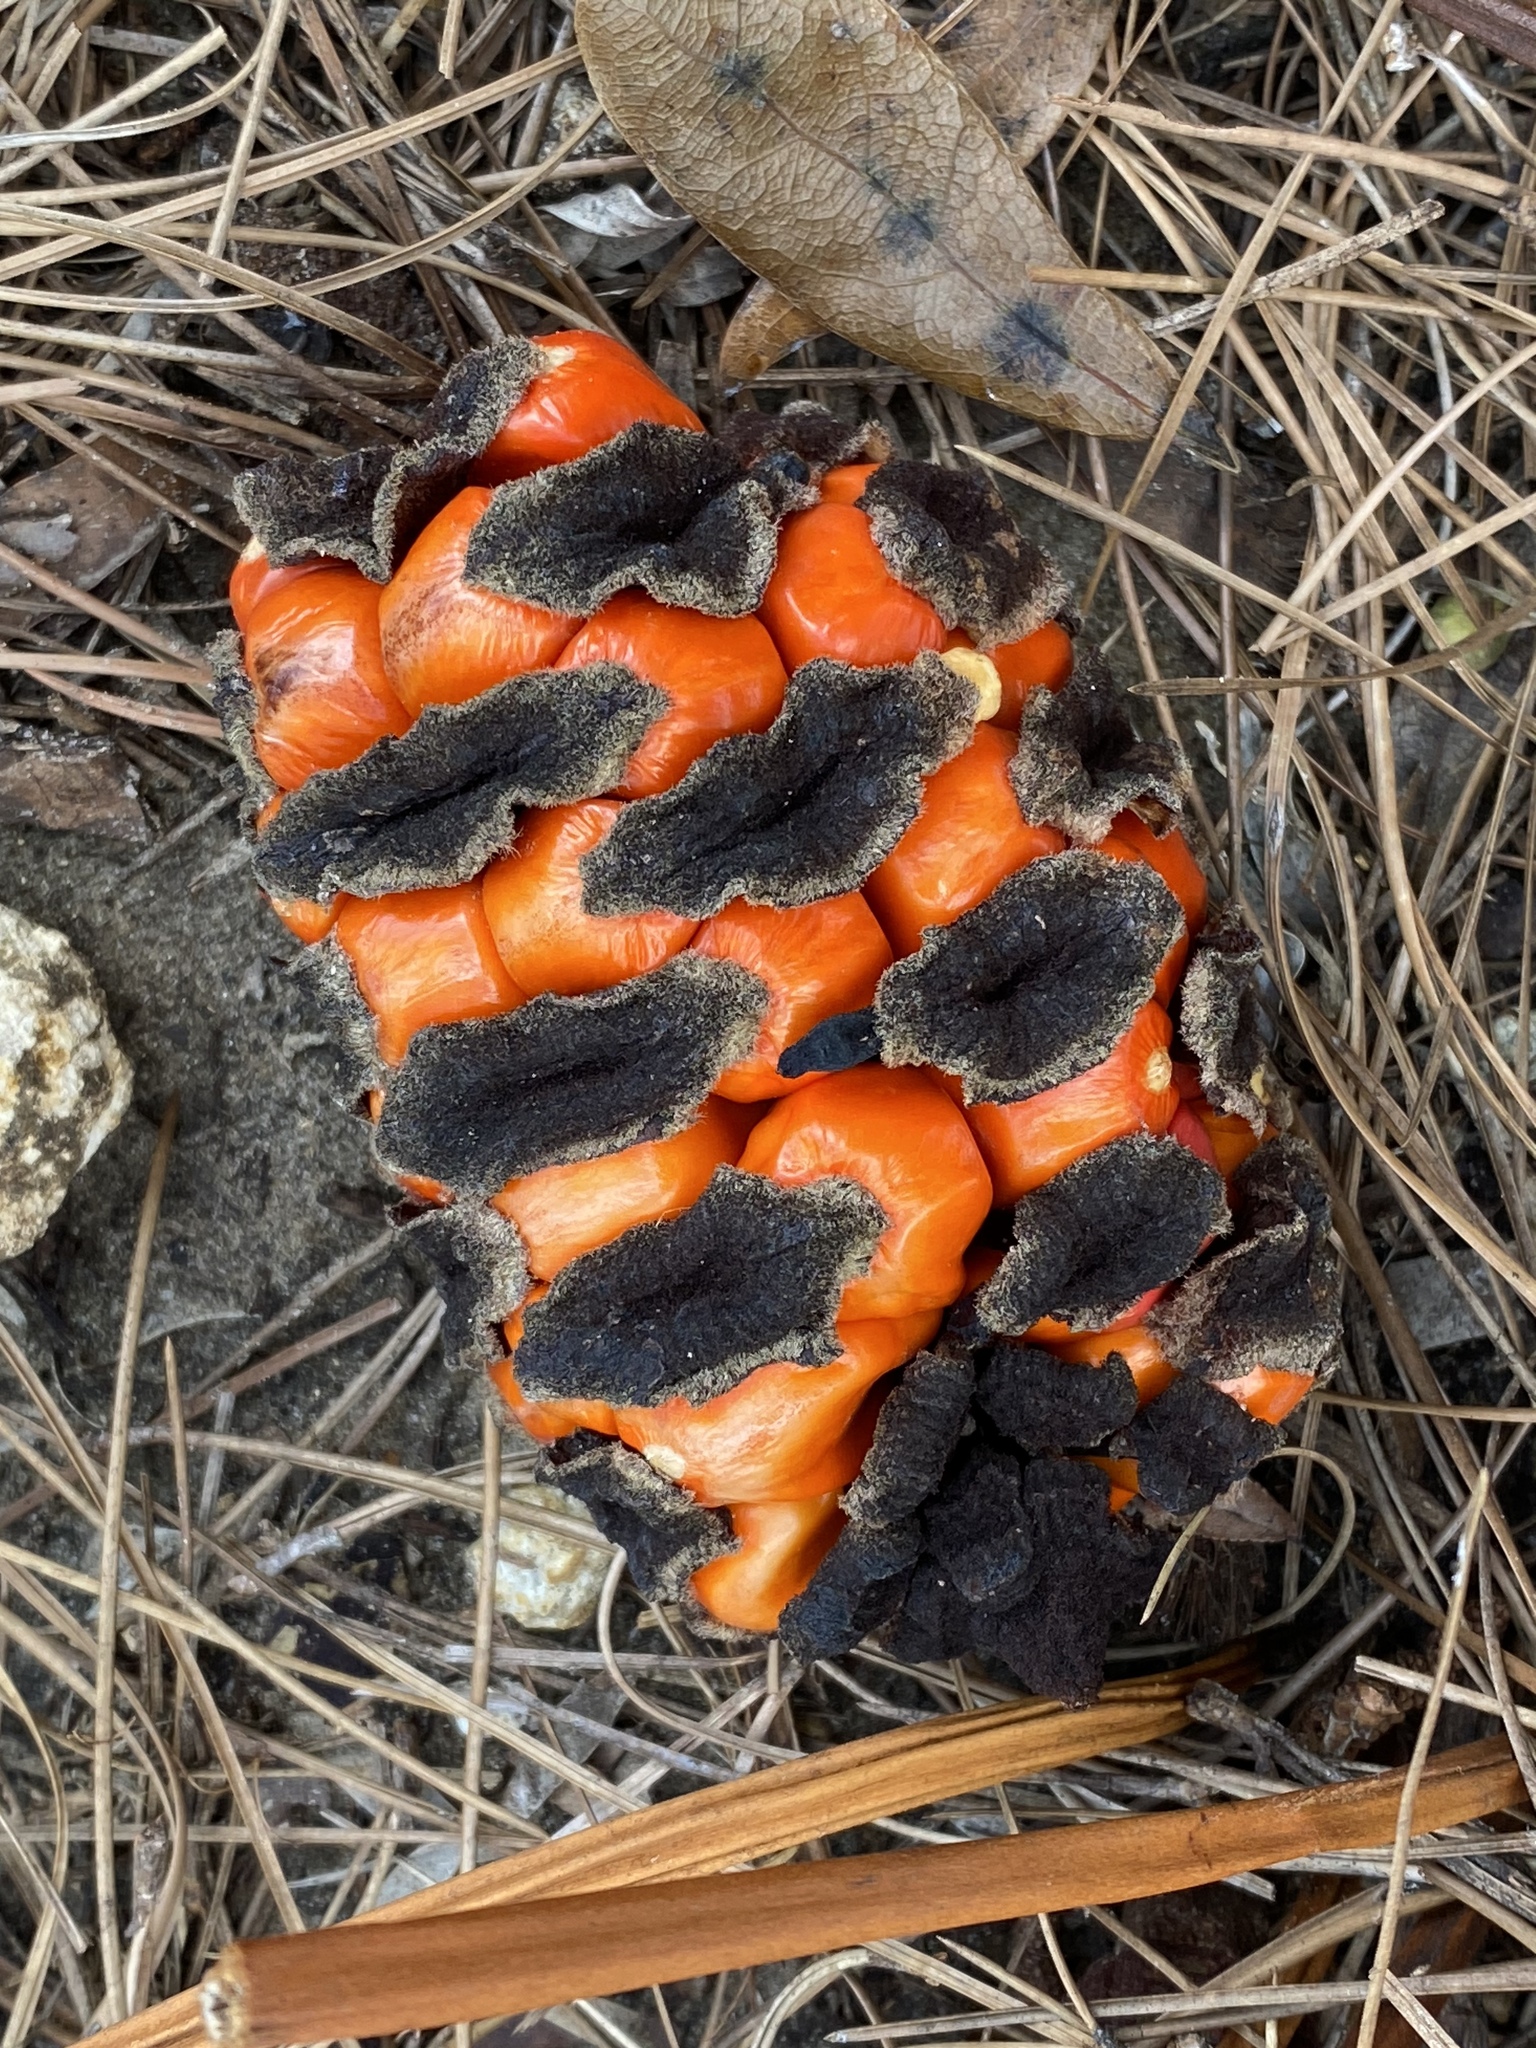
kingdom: Plantae
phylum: Tracheophyta
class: Cycadopsida
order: Cycadales
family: Zamiaceae
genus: Zamia
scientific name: Zamia integrifolia
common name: Florida arrowroot
